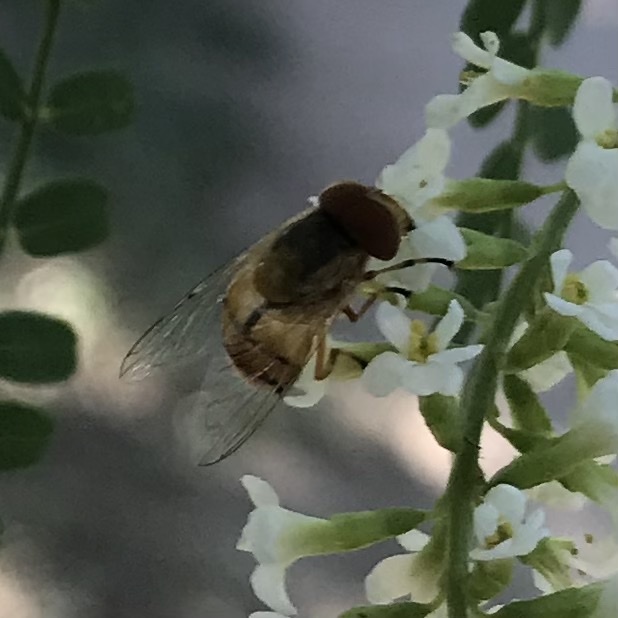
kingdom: Animalia
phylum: Arthropoda
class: Insecta
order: Diptera
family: Syrphidae
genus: Copestylum
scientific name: Copestylum sexmaculatum
